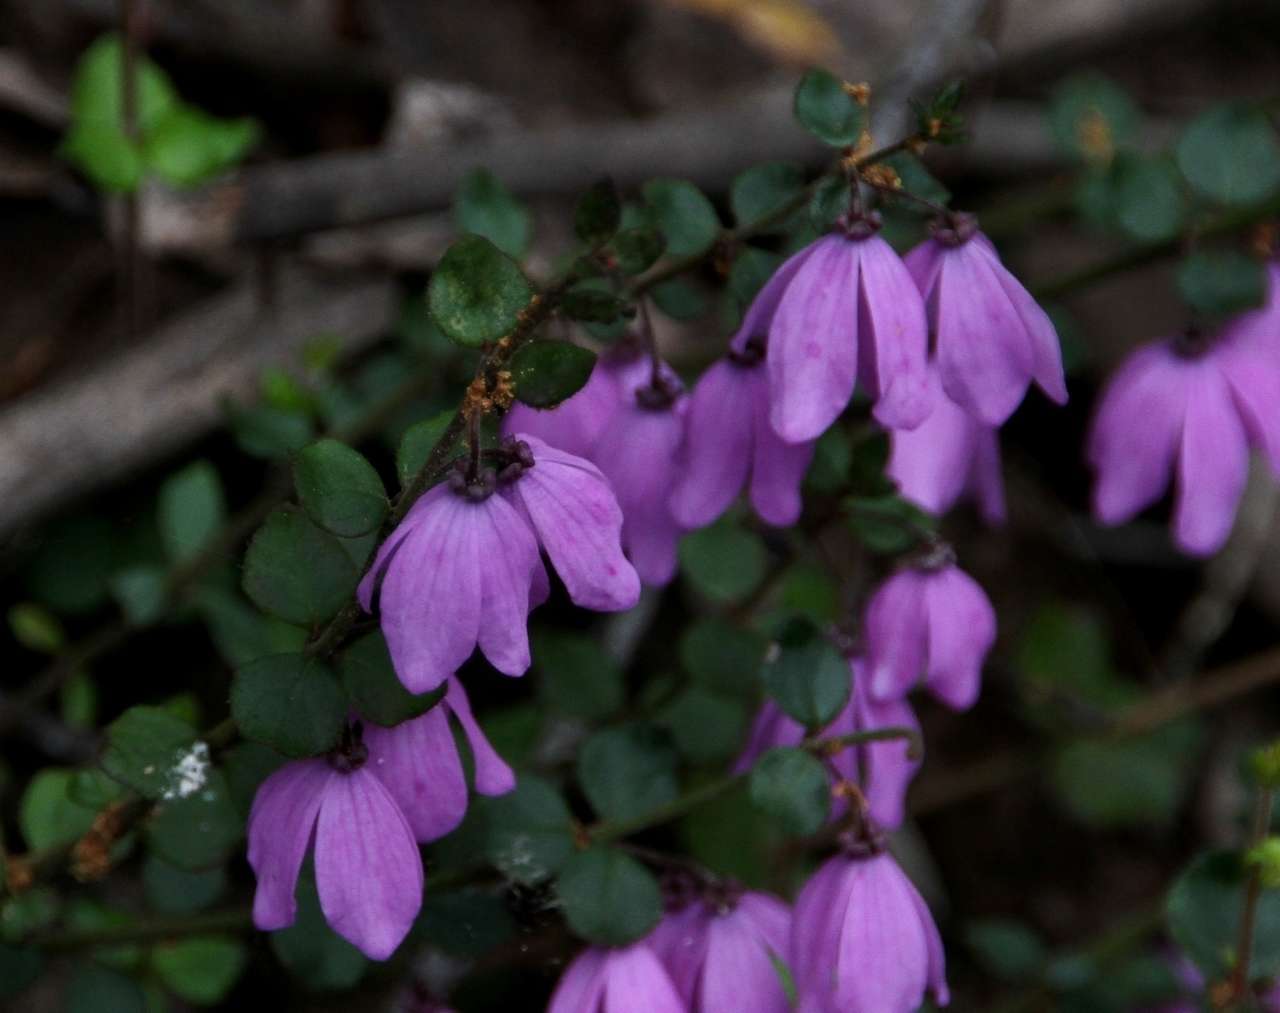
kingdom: Plantae
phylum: Tracheophyta
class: Magnoliopsida
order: Oxalidales
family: Elaeocarpaceae
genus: Tetratheca
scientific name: Tetratheca ciliata
